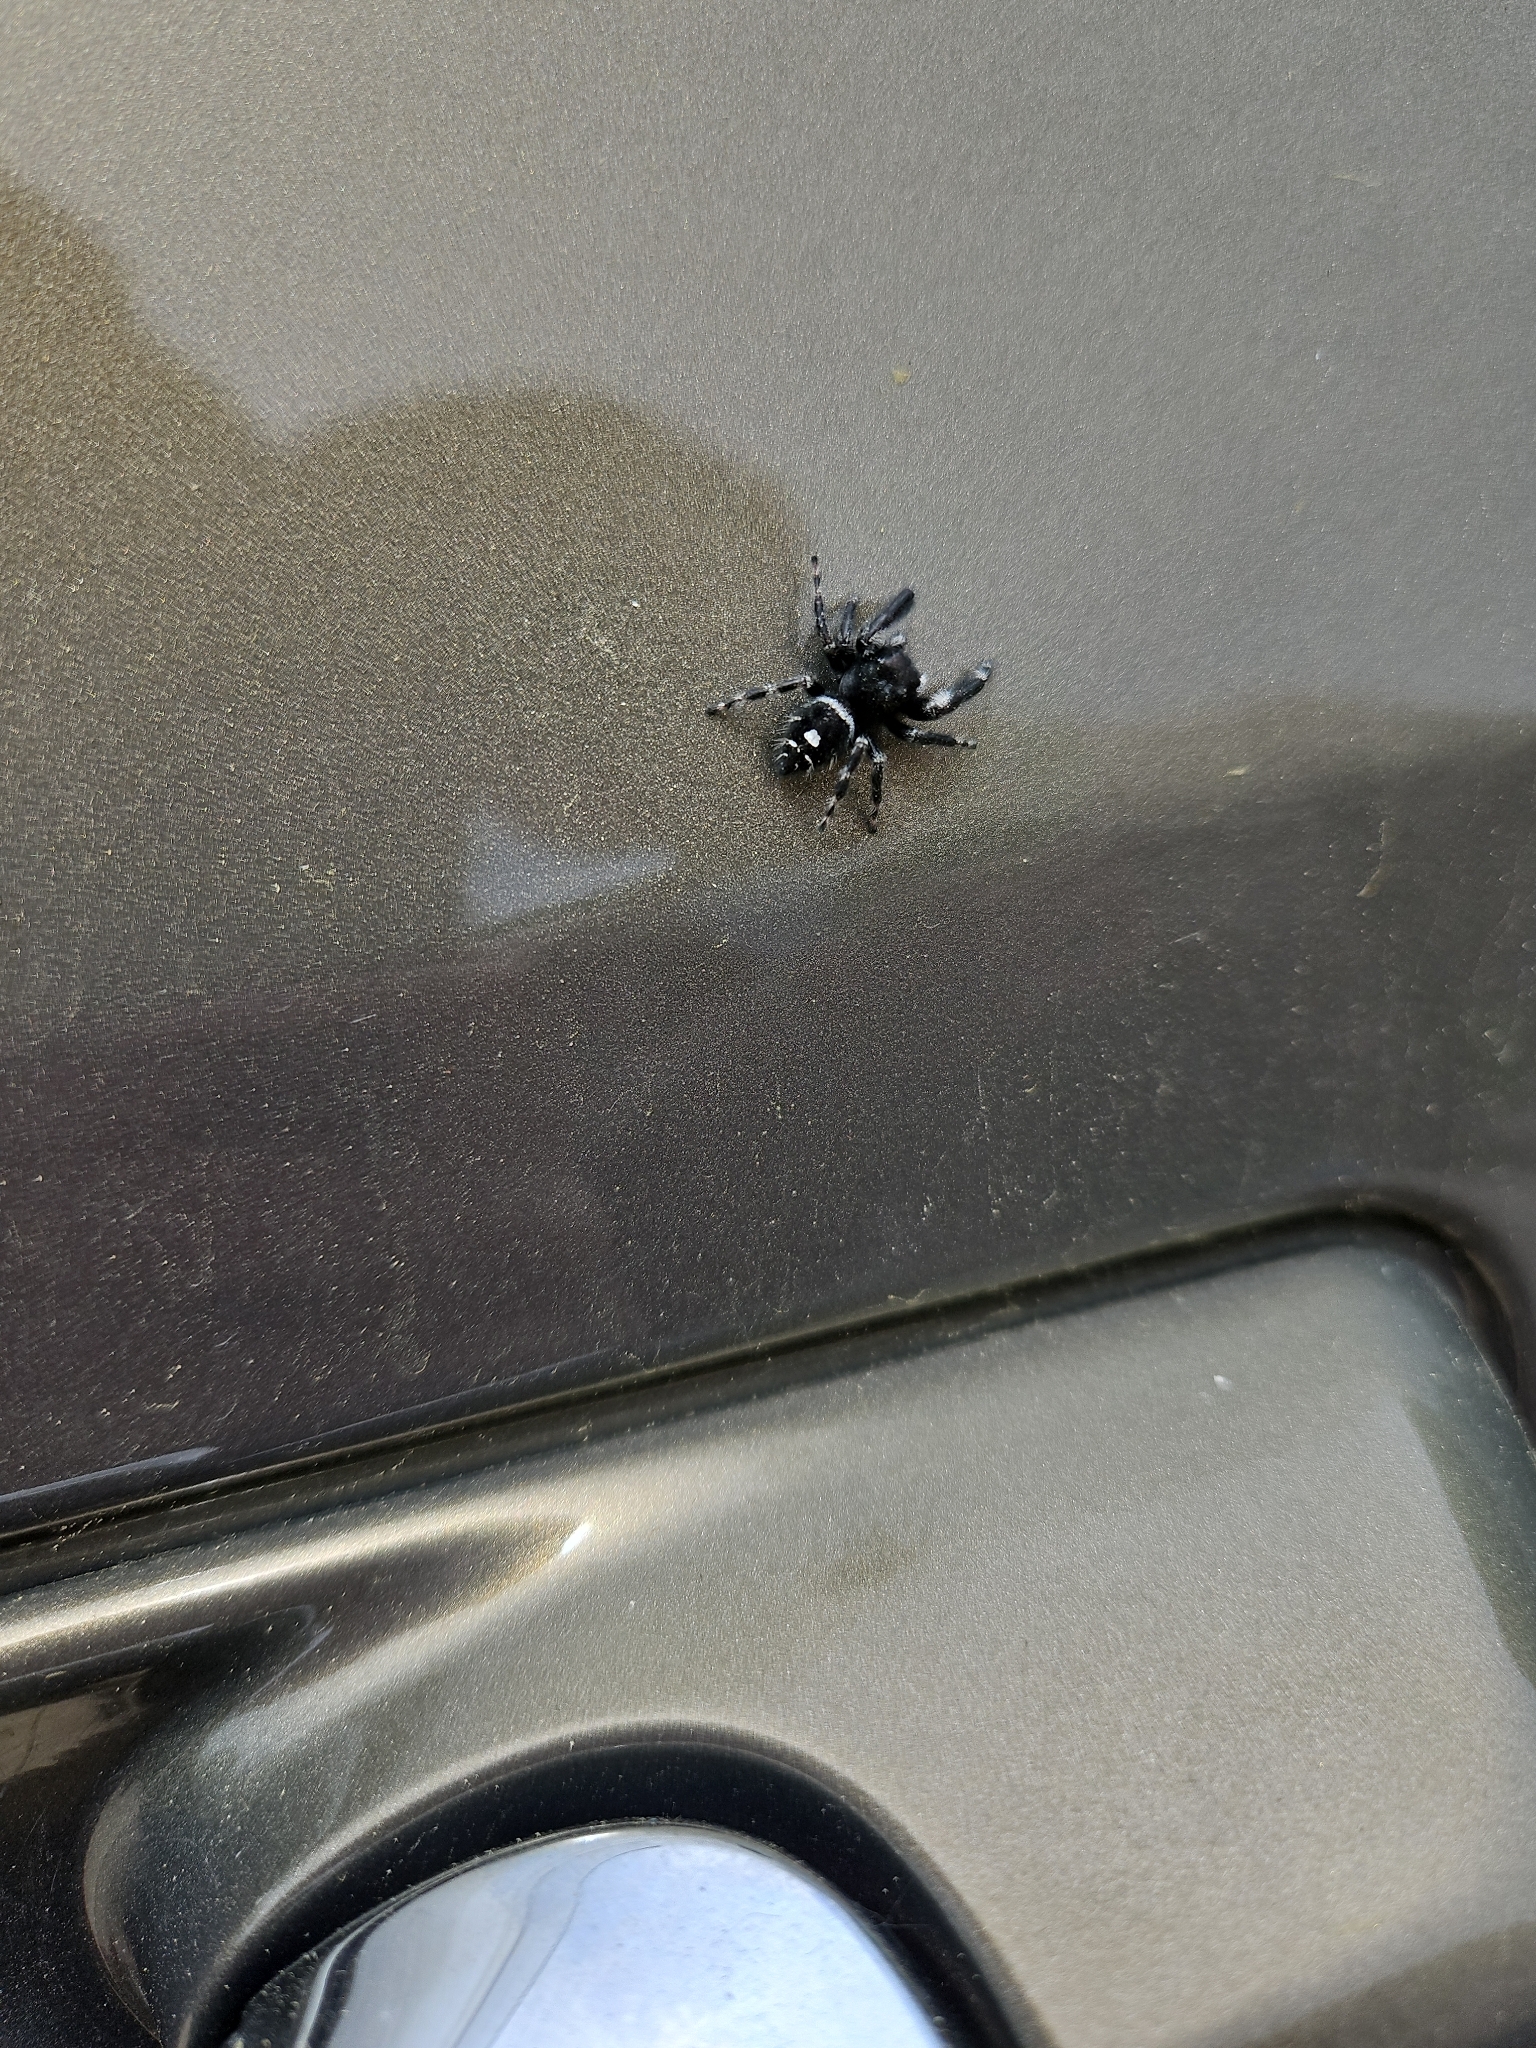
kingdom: Animalia
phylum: Arthropoda
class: Arachnida
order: Araneae
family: Salticidae
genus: Phidippus
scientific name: Phidippus audax
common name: Bold jumper
